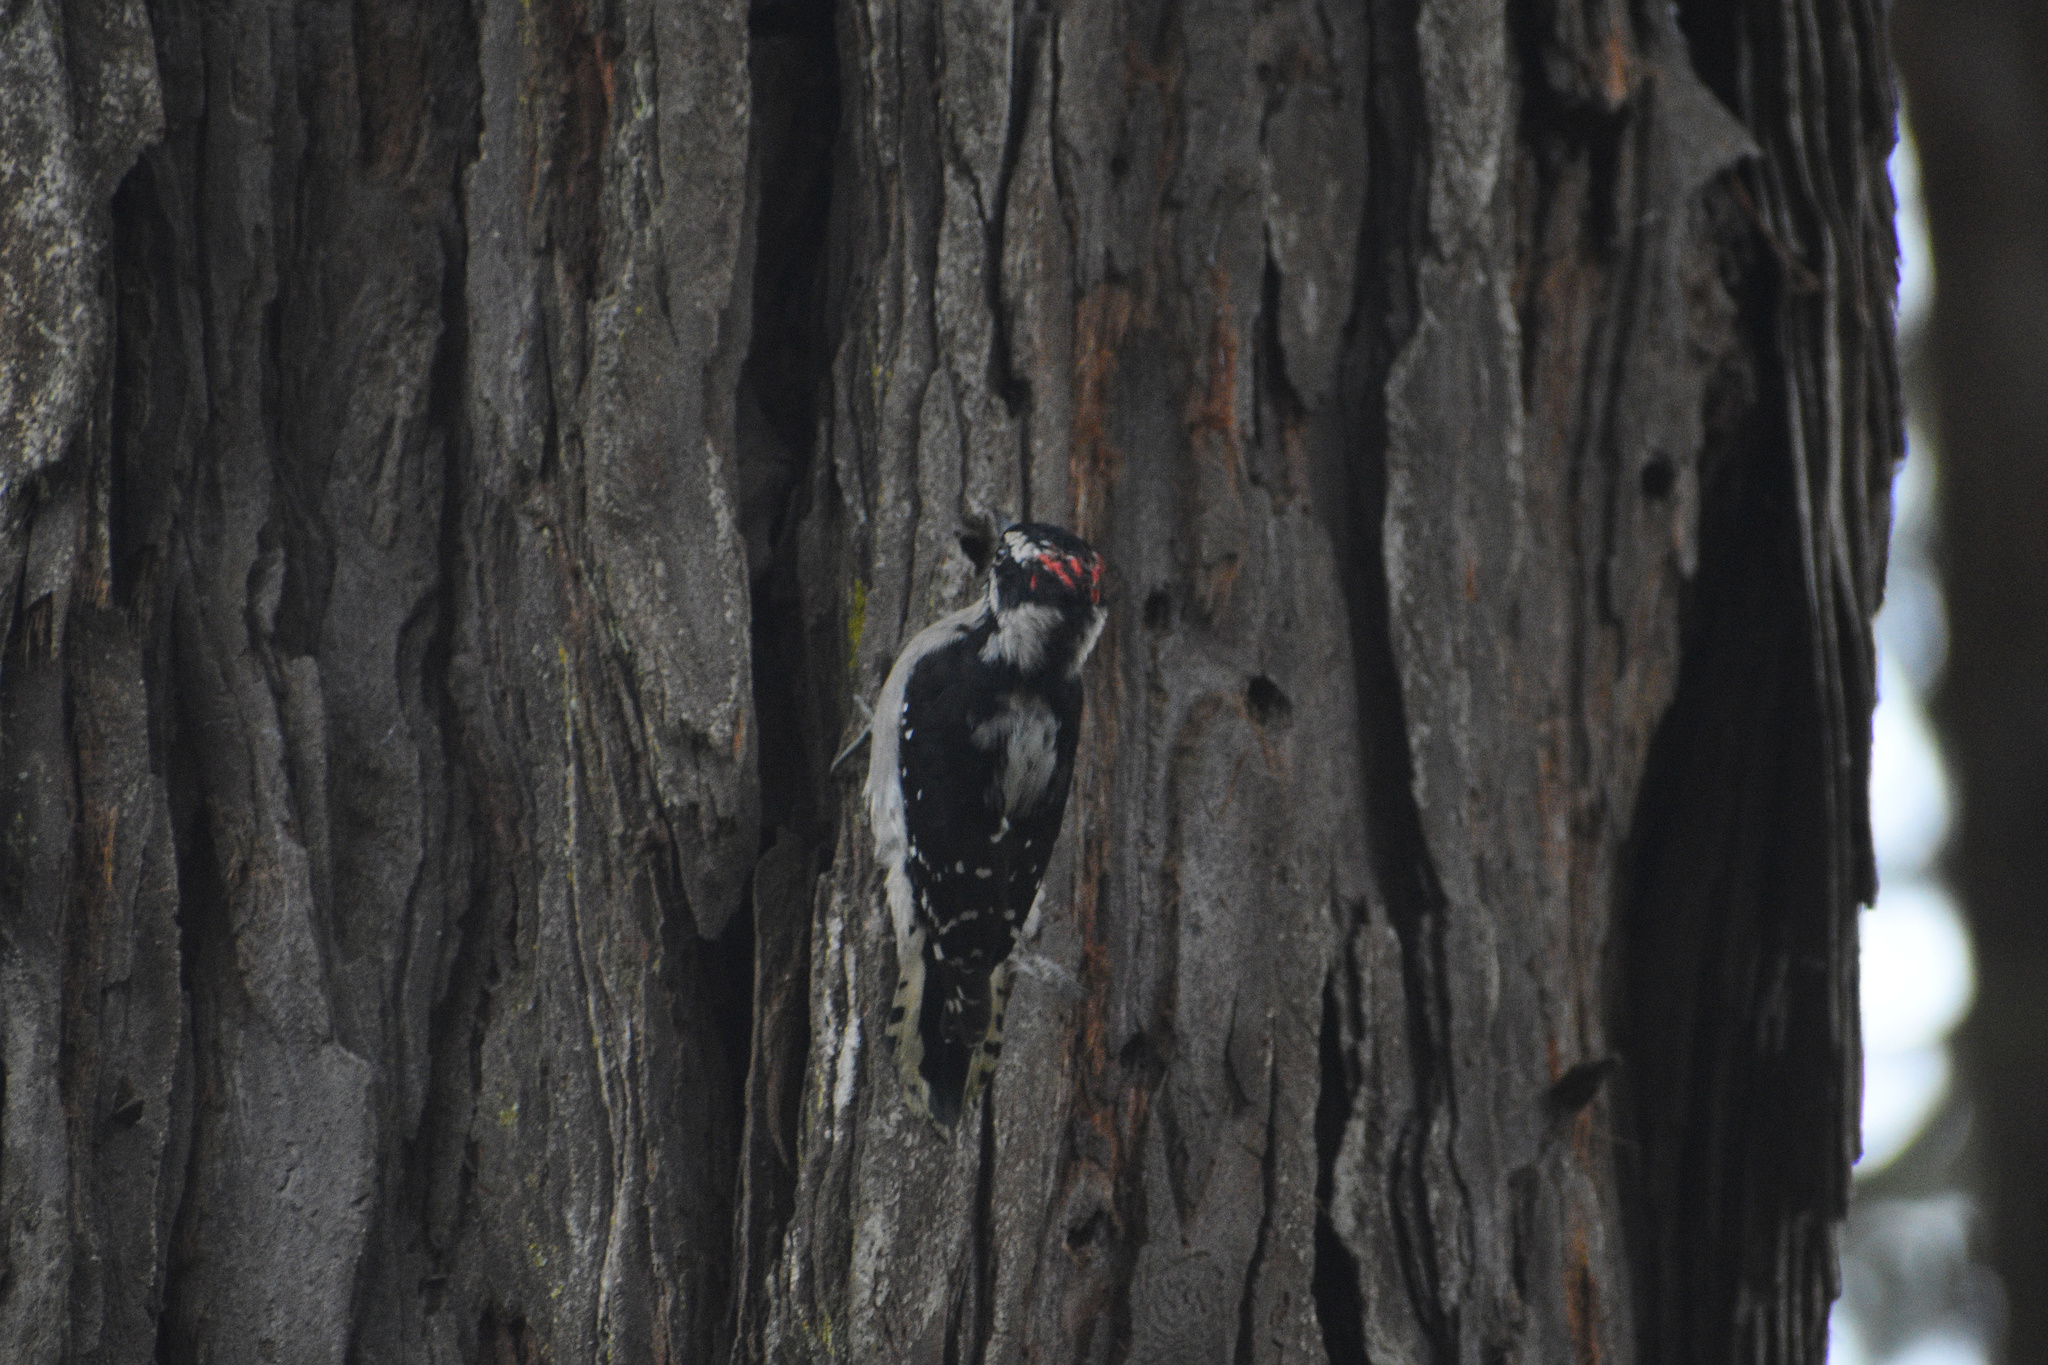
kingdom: Animalia
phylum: Chordata
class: Aves
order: Piciformes
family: Picidae
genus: Dryobates
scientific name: Dryobates pubescens
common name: Downy woodpecker
